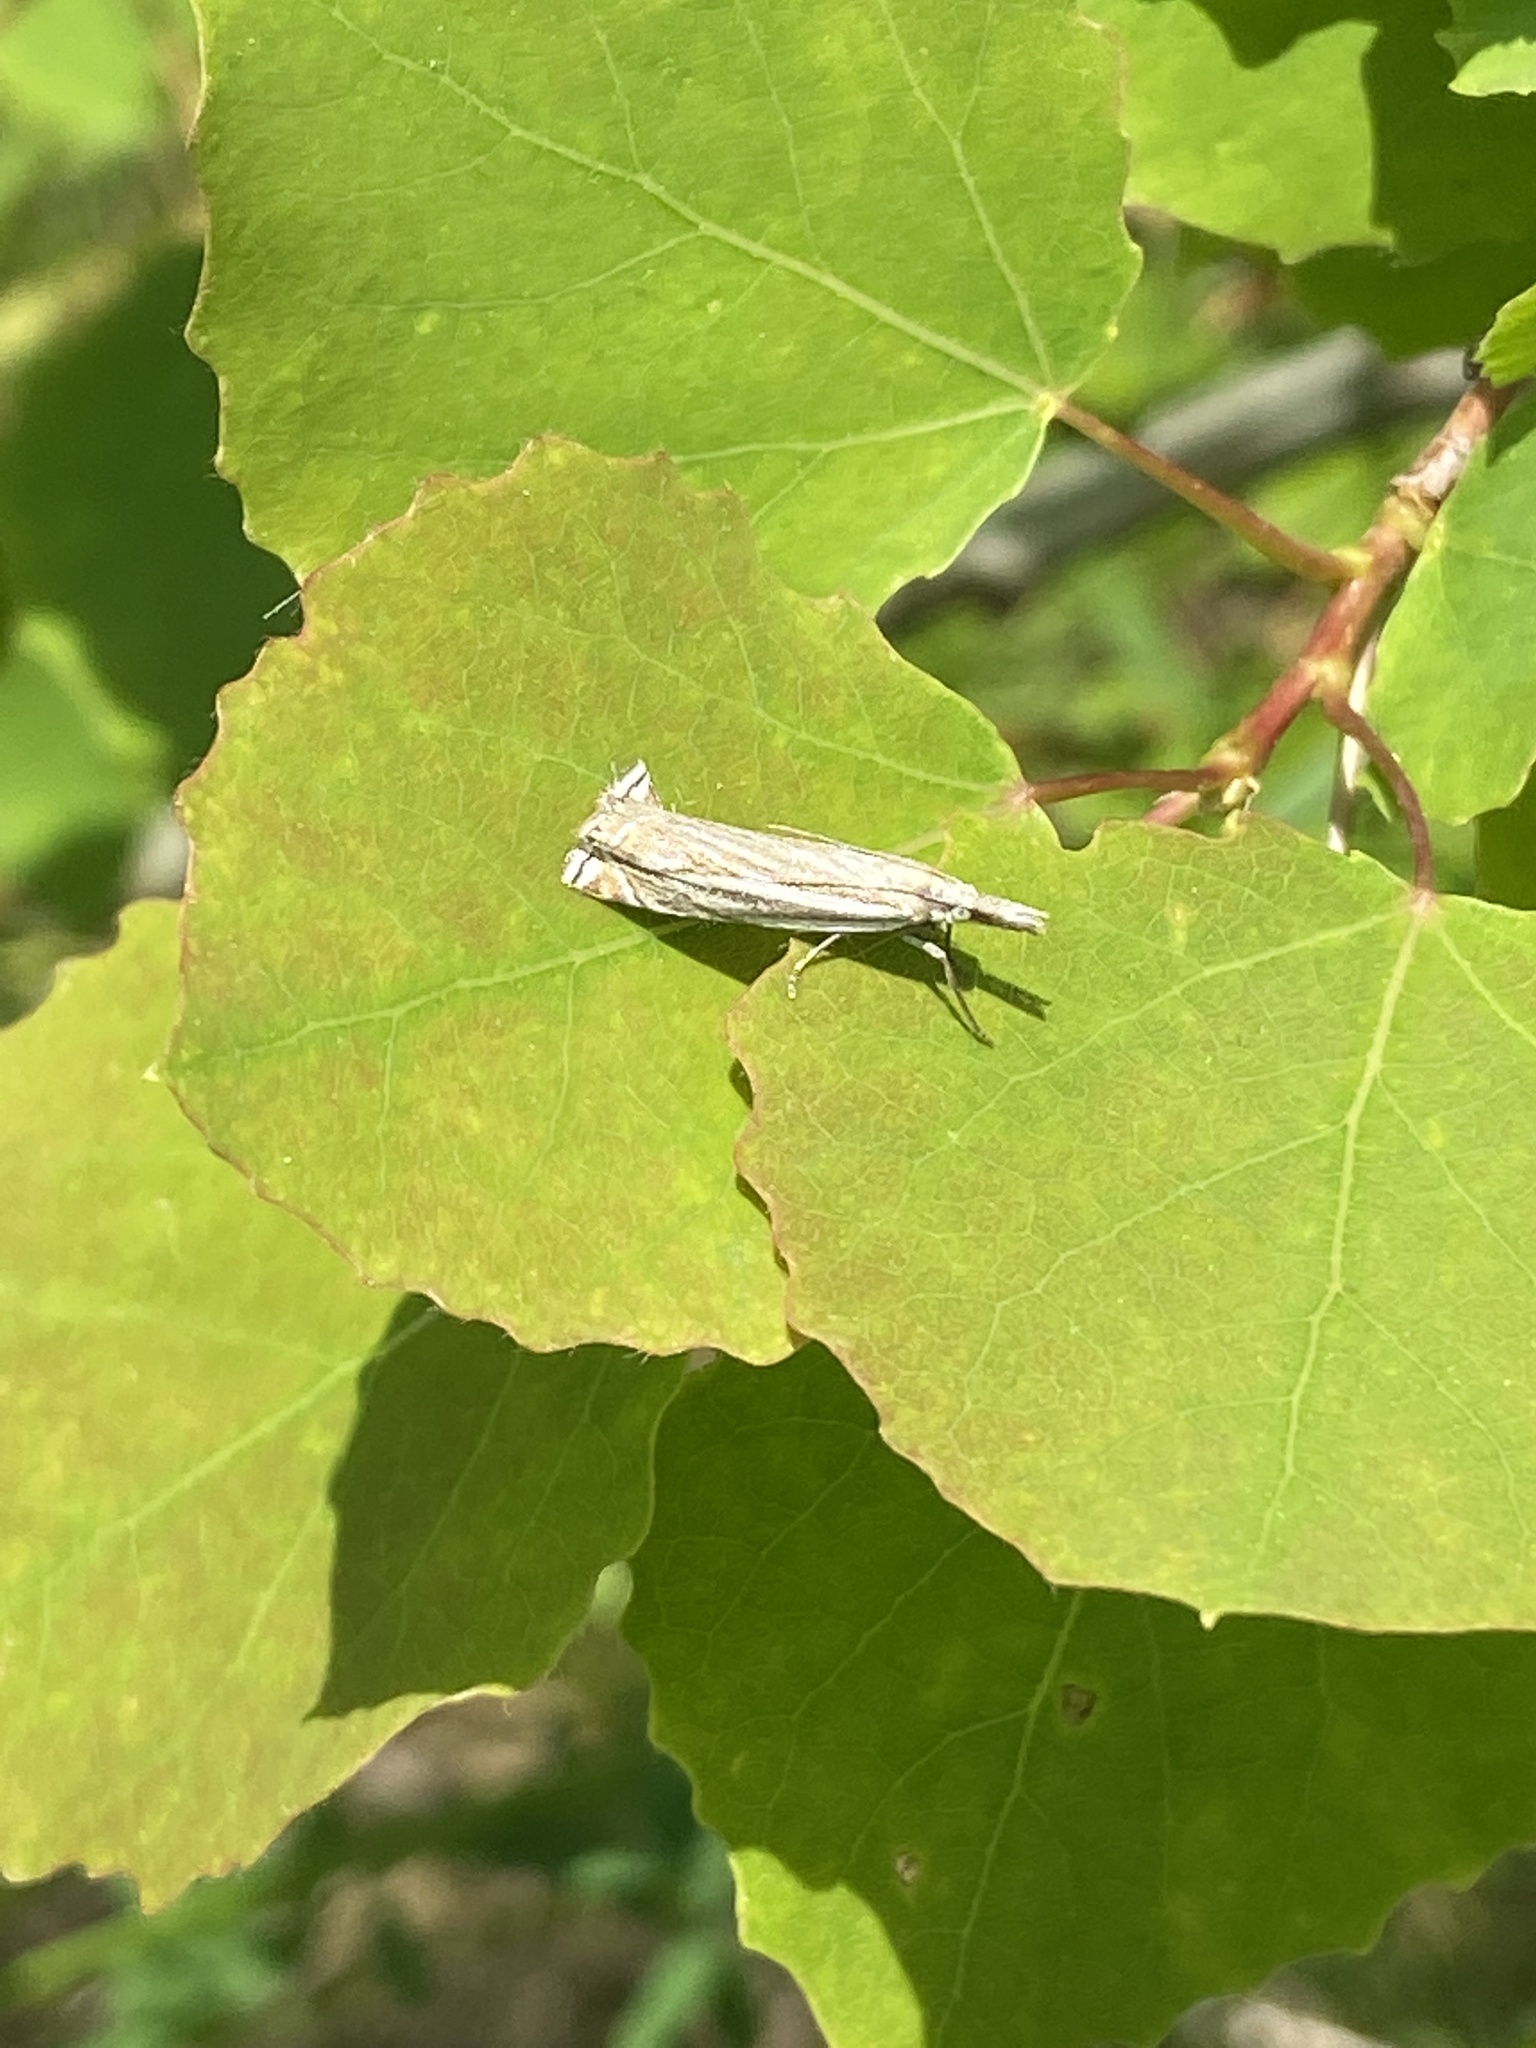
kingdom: Animalia
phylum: Arthropoda
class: Insecta
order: Lepidoptera
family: Crambidae
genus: Crambus
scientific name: Crambus nemorella
